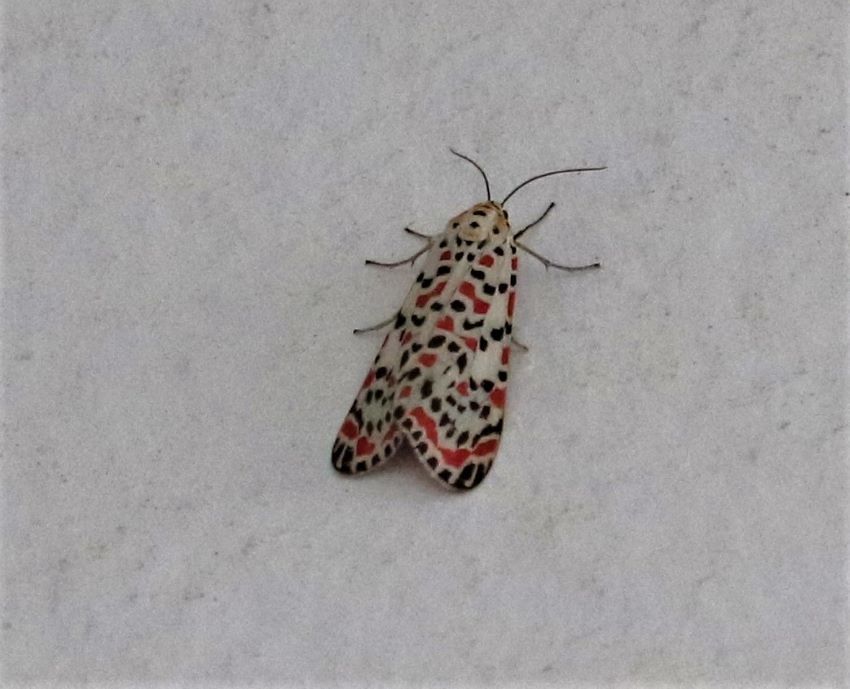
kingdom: Animalia
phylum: Arthropoda
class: Insecta
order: Lepidoptera
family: Erebidae
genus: Utetheisa
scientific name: Utetheisa pulchella
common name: Crimson speckled
